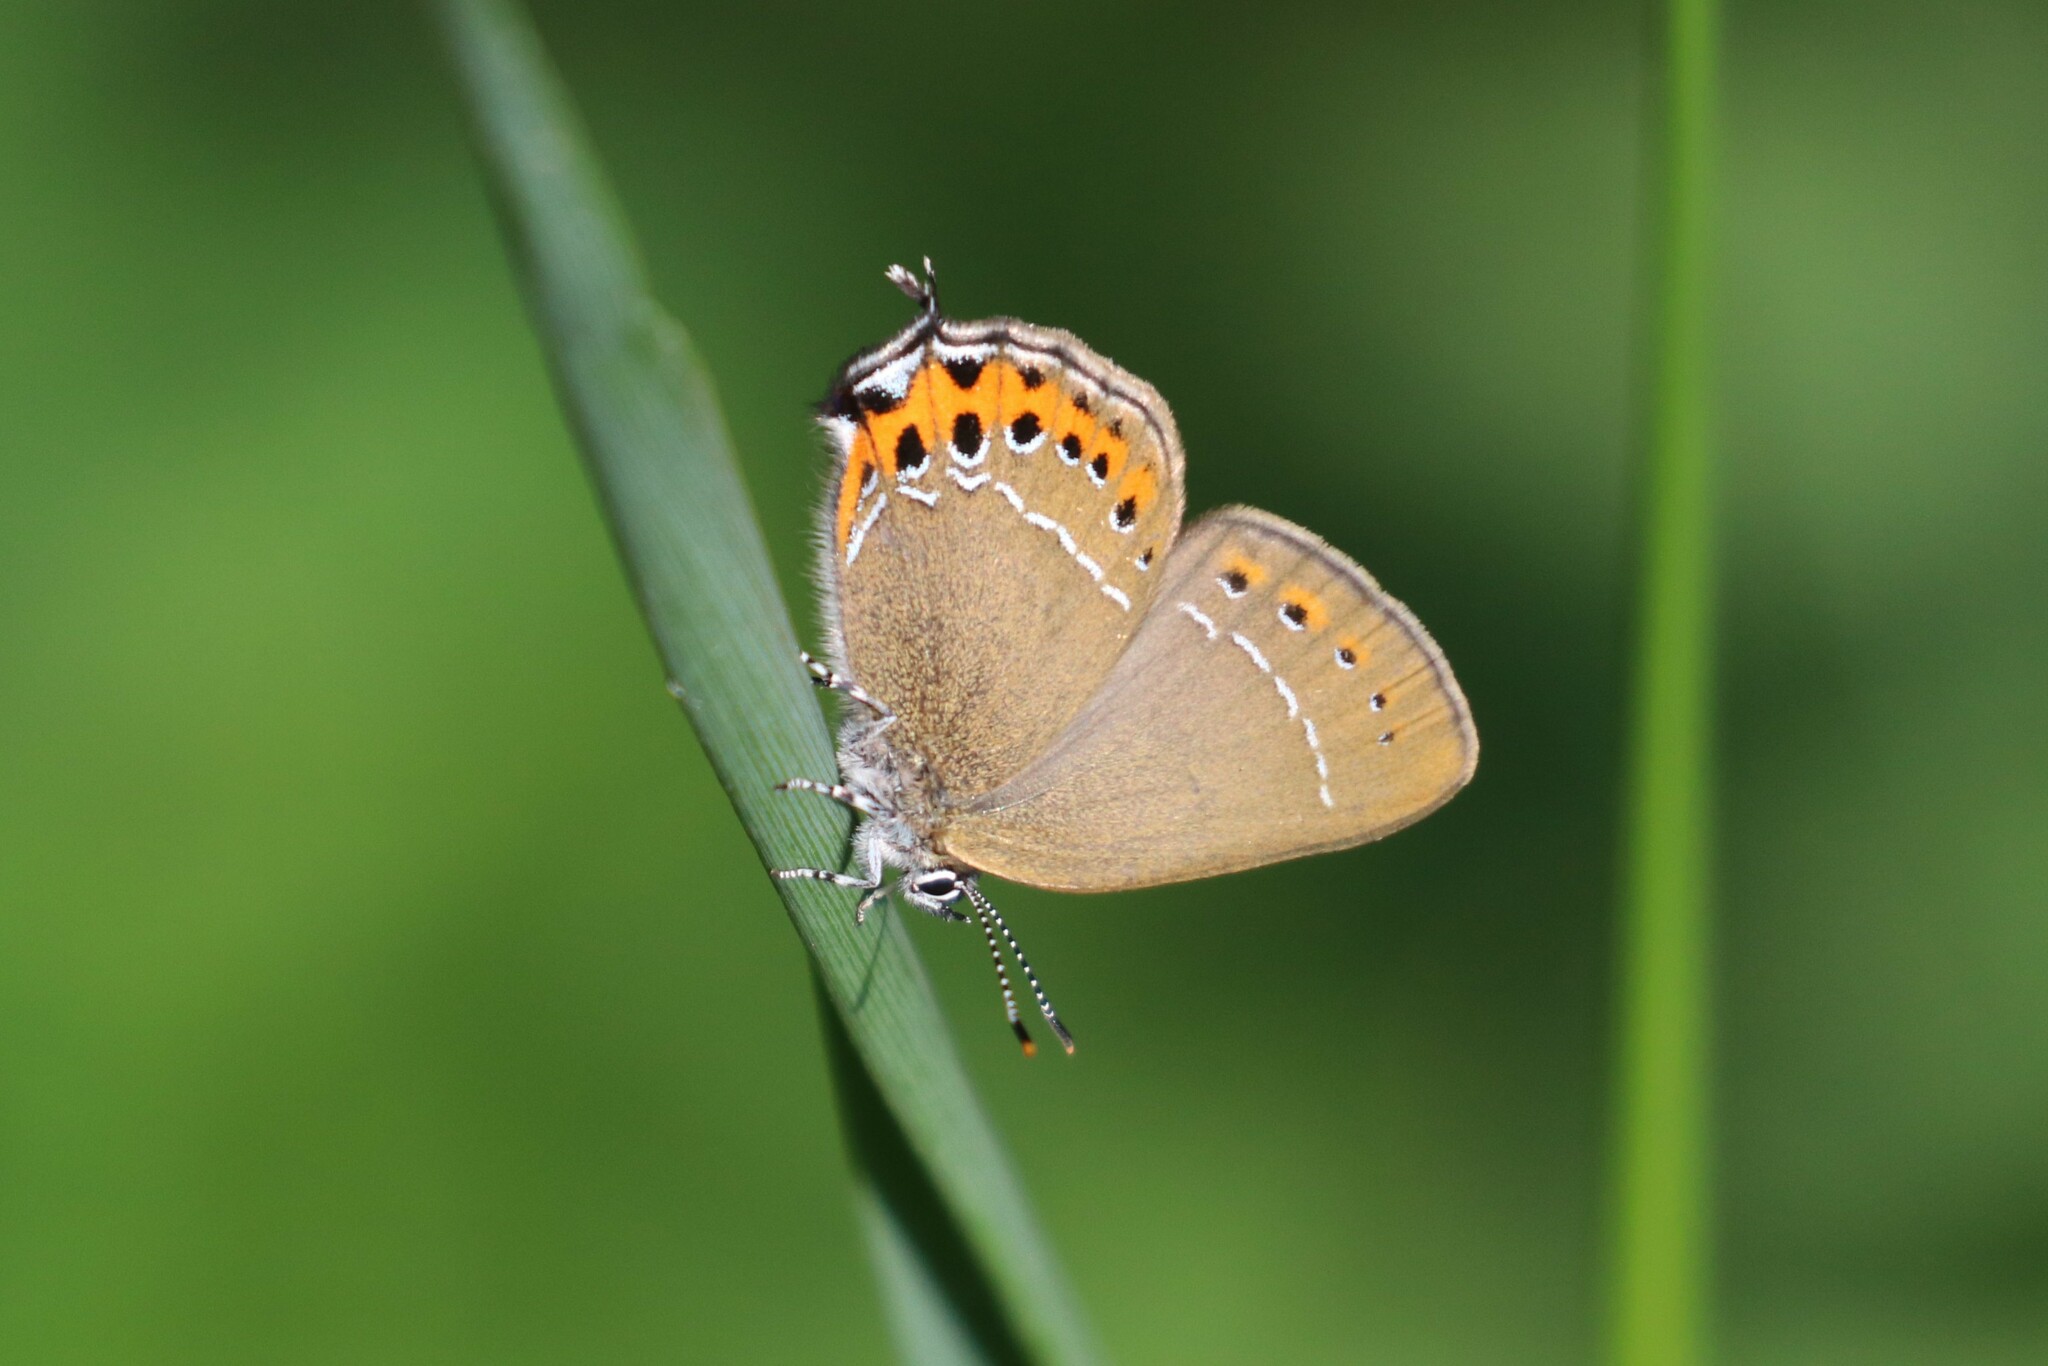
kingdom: Animalia
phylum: Arthropoda
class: Insecta
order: Lepidoptera
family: Lycaenidae
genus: Fixsenia
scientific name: Fixsenia pruni
